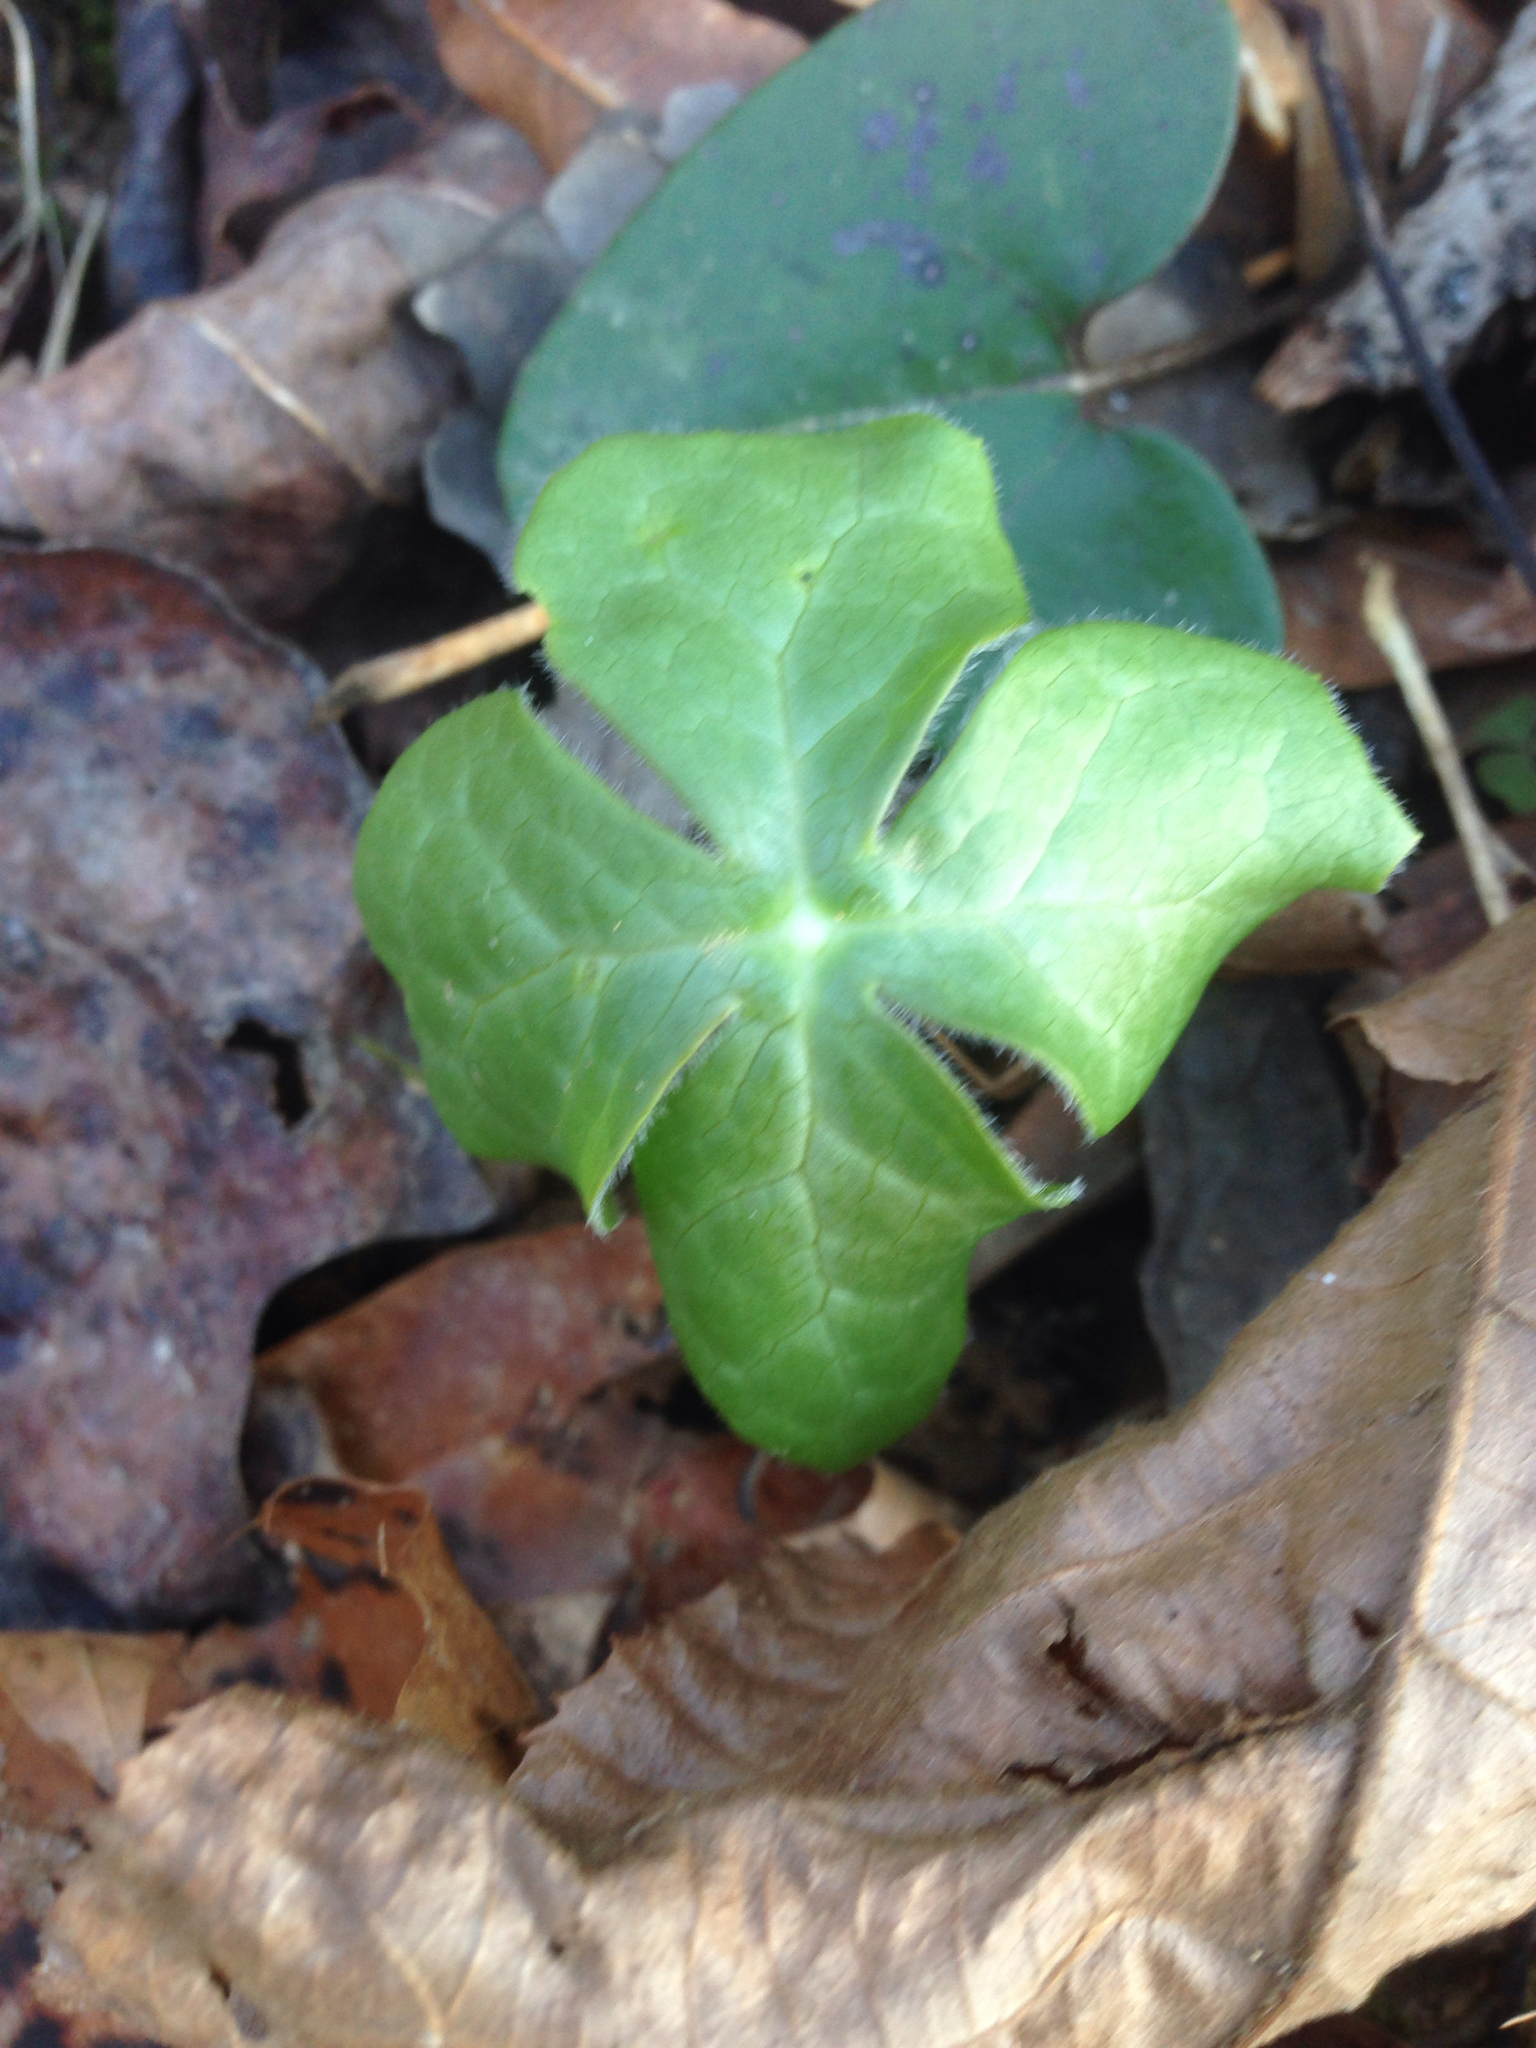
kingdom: Plantae
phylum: Tracheophyta
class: Magnoliopsida
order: Ranunculales
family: Berberidaceae
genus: Podophyllum
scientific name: Podophyllum peltatum
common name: Wild mandrake
